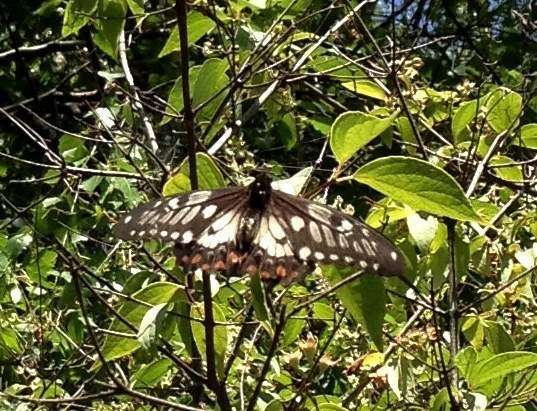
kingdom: Animalia
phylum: Arthropoda
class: Insecta
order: Lepidoptera
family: Papilionidae
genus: Papilio
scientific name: Papilio anactus
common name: Dingy swallowtail
